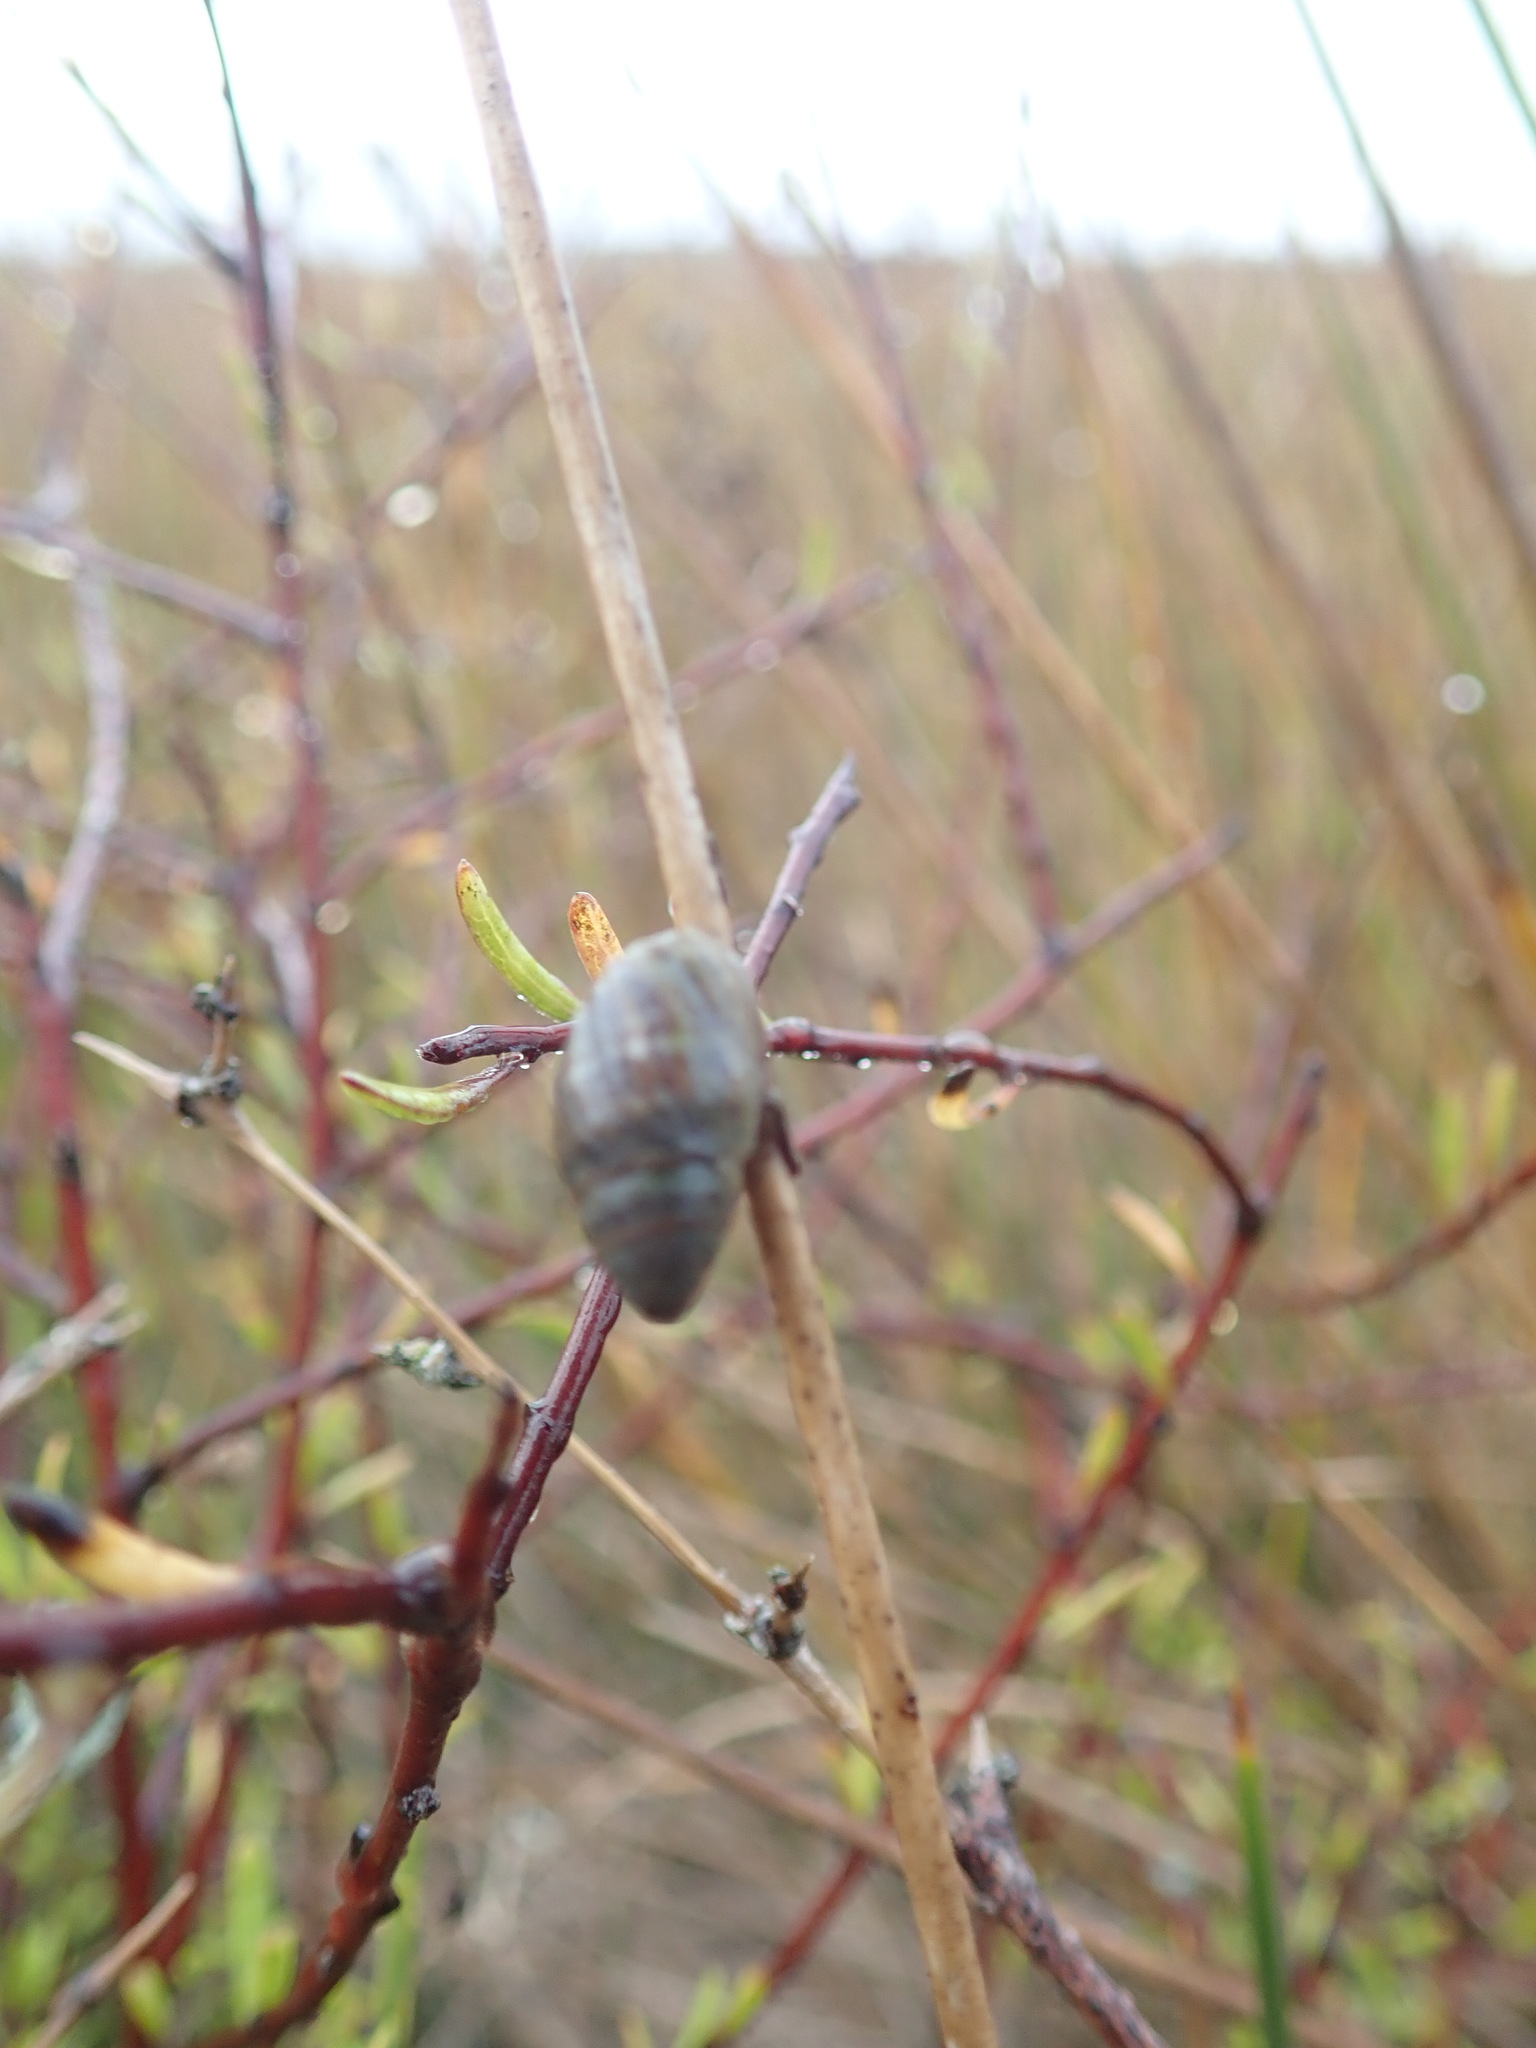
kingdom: Animalia
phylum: Mollusca
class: Gastropoda
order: Ellobiida
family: Ellobiidae
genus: Pleuroloba
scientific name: Pleuroloba costellaris
